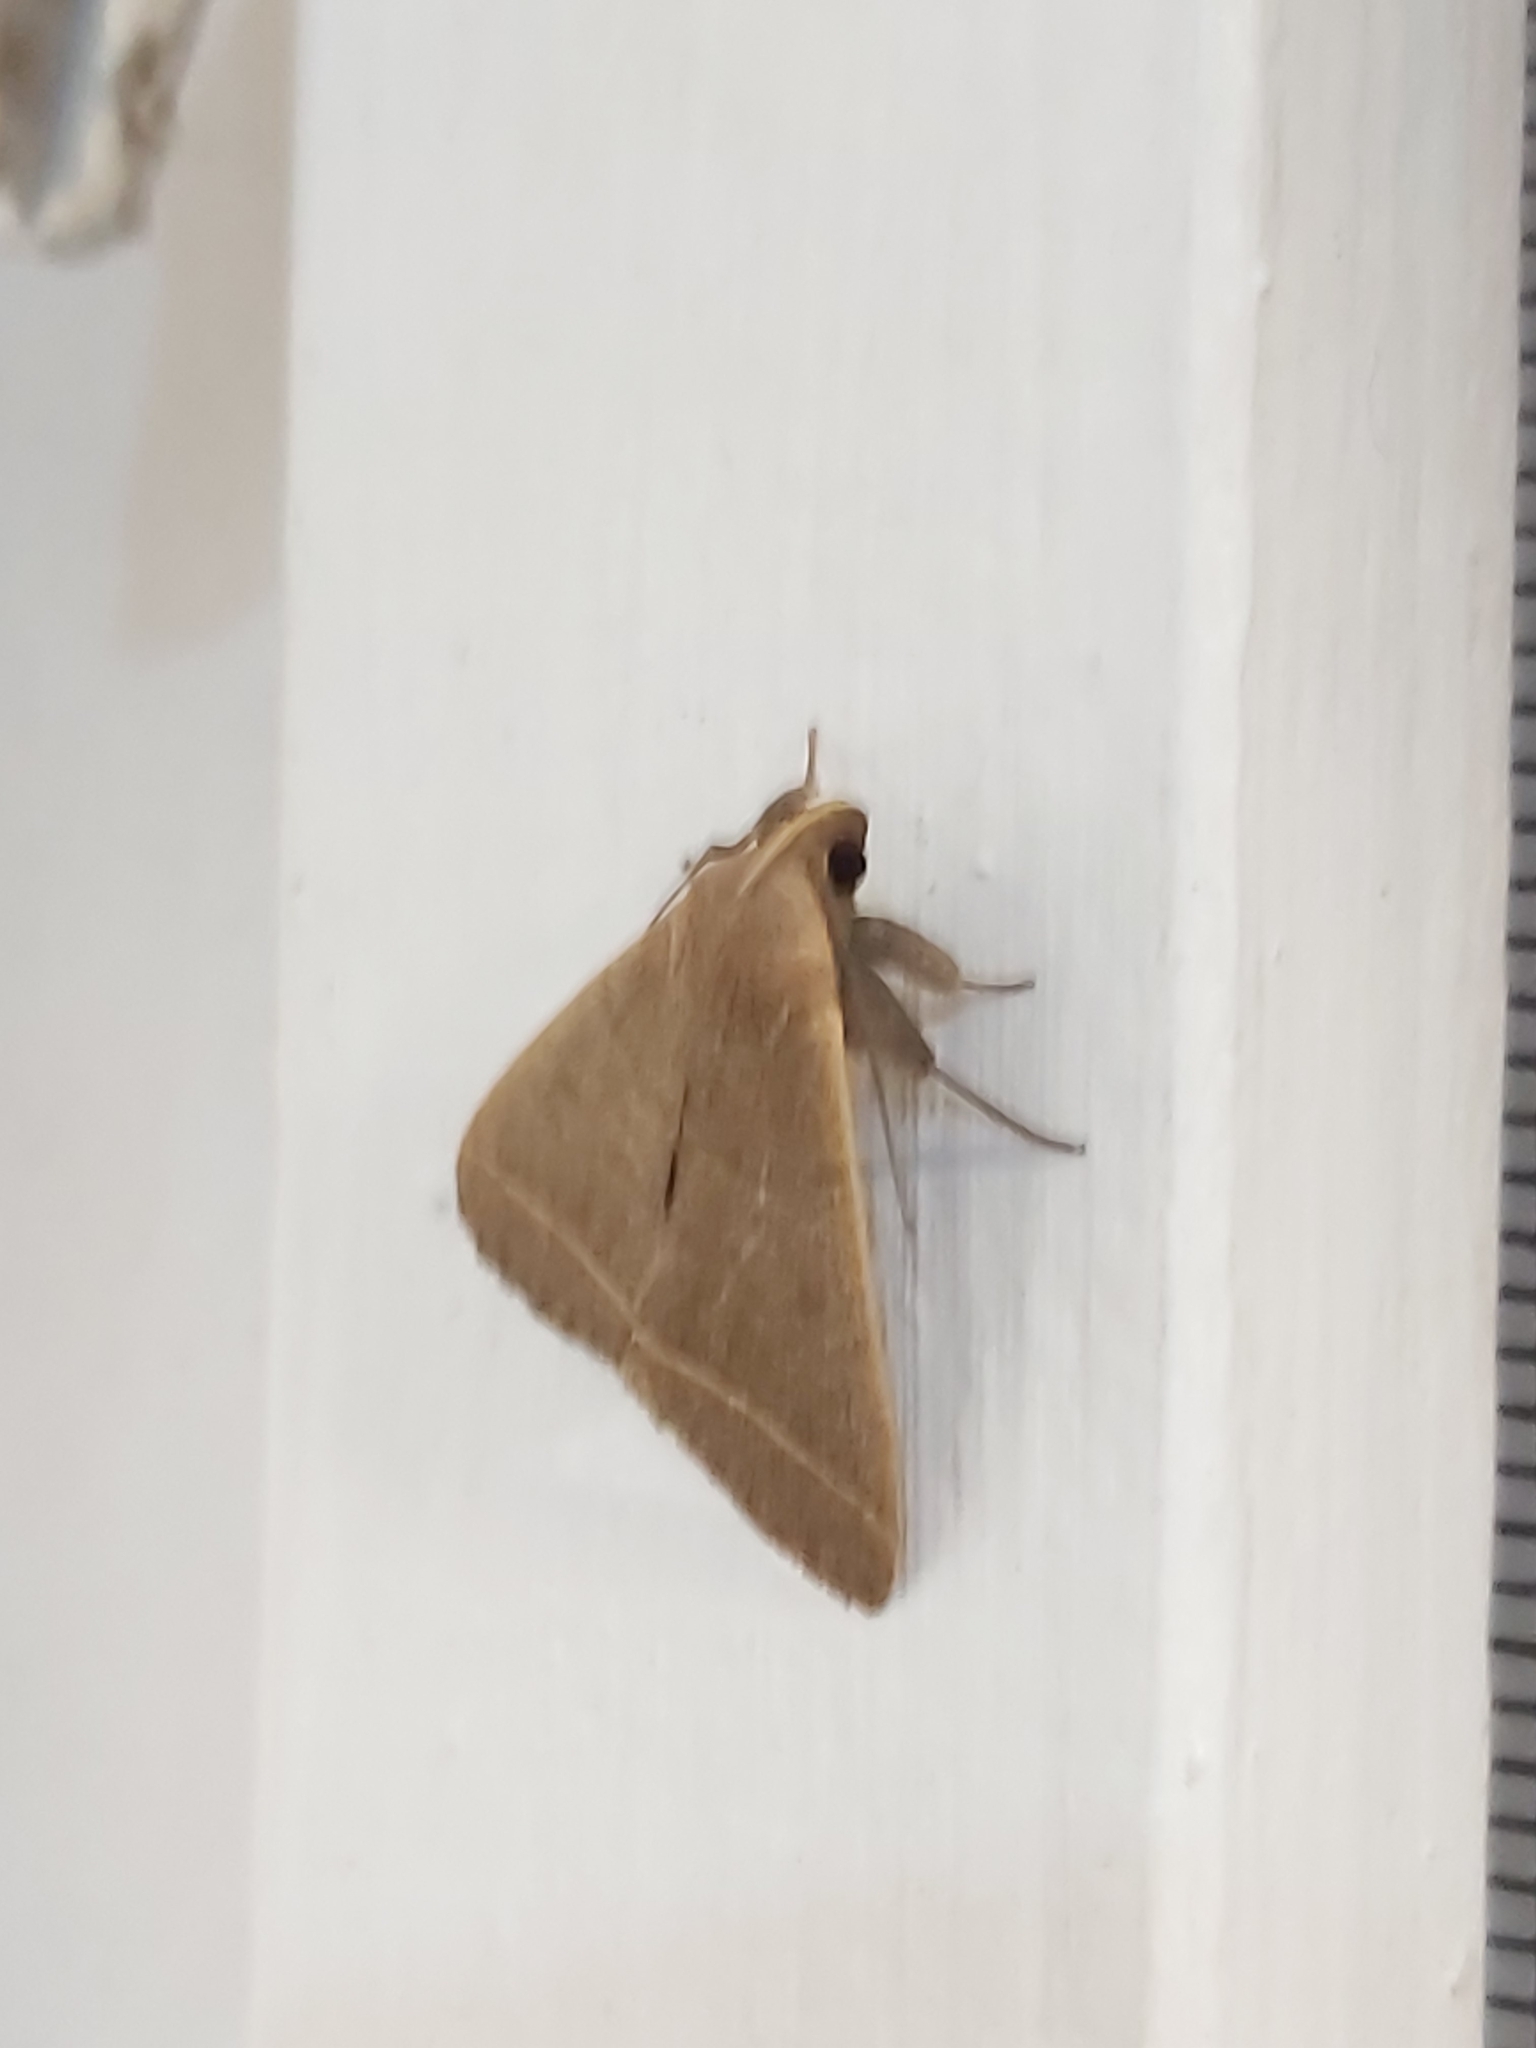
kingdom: Animalia
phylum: Arthropoda
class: Insecta
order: Lepidoptera
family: Erebidae
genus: Simplicia
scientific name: Simplicia cornicalis
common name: Tiki hut litter moth
